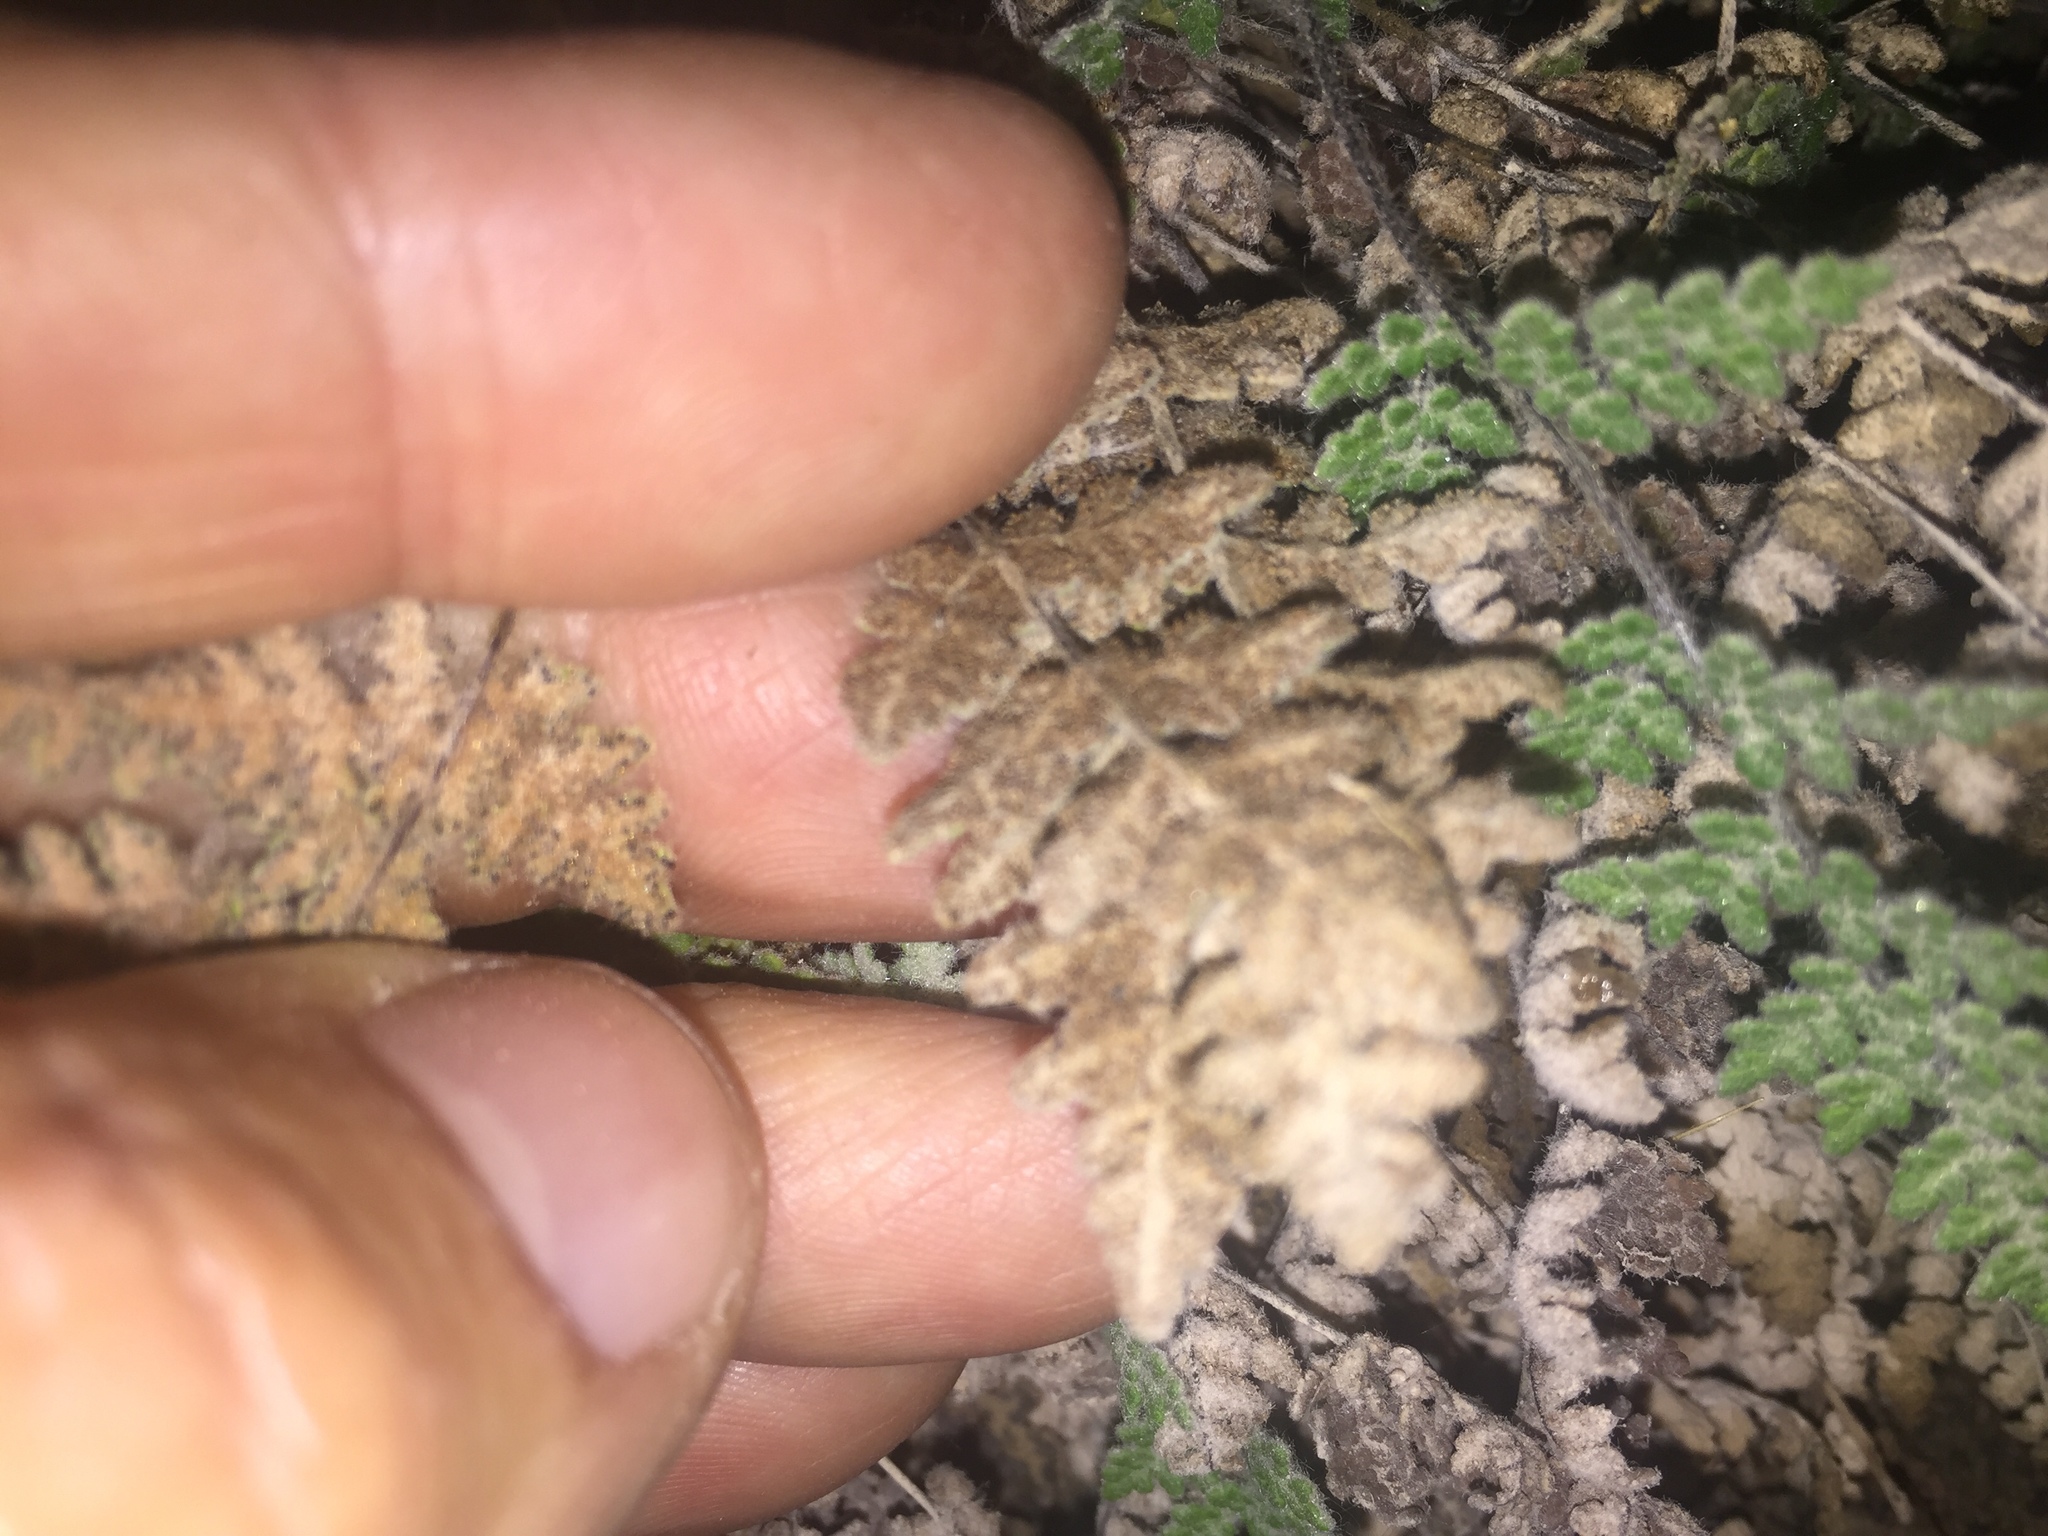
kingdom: Plantae
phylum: Tracheophyta
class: Polypodiopsida
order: Polypodiales
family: Pteridaceae
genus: Myriopteris
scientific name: Myriopteris gracilis
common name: Fee's lip fern
